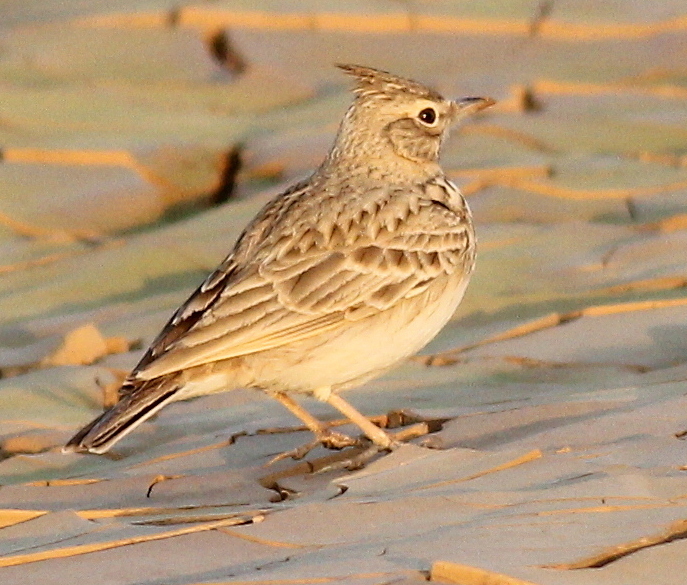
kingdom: Animalia
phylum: Chordata
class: Aves
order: Passeriformes
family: Alaudidae
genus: Galerida
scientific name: Galerida cristata
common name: Crested lark
